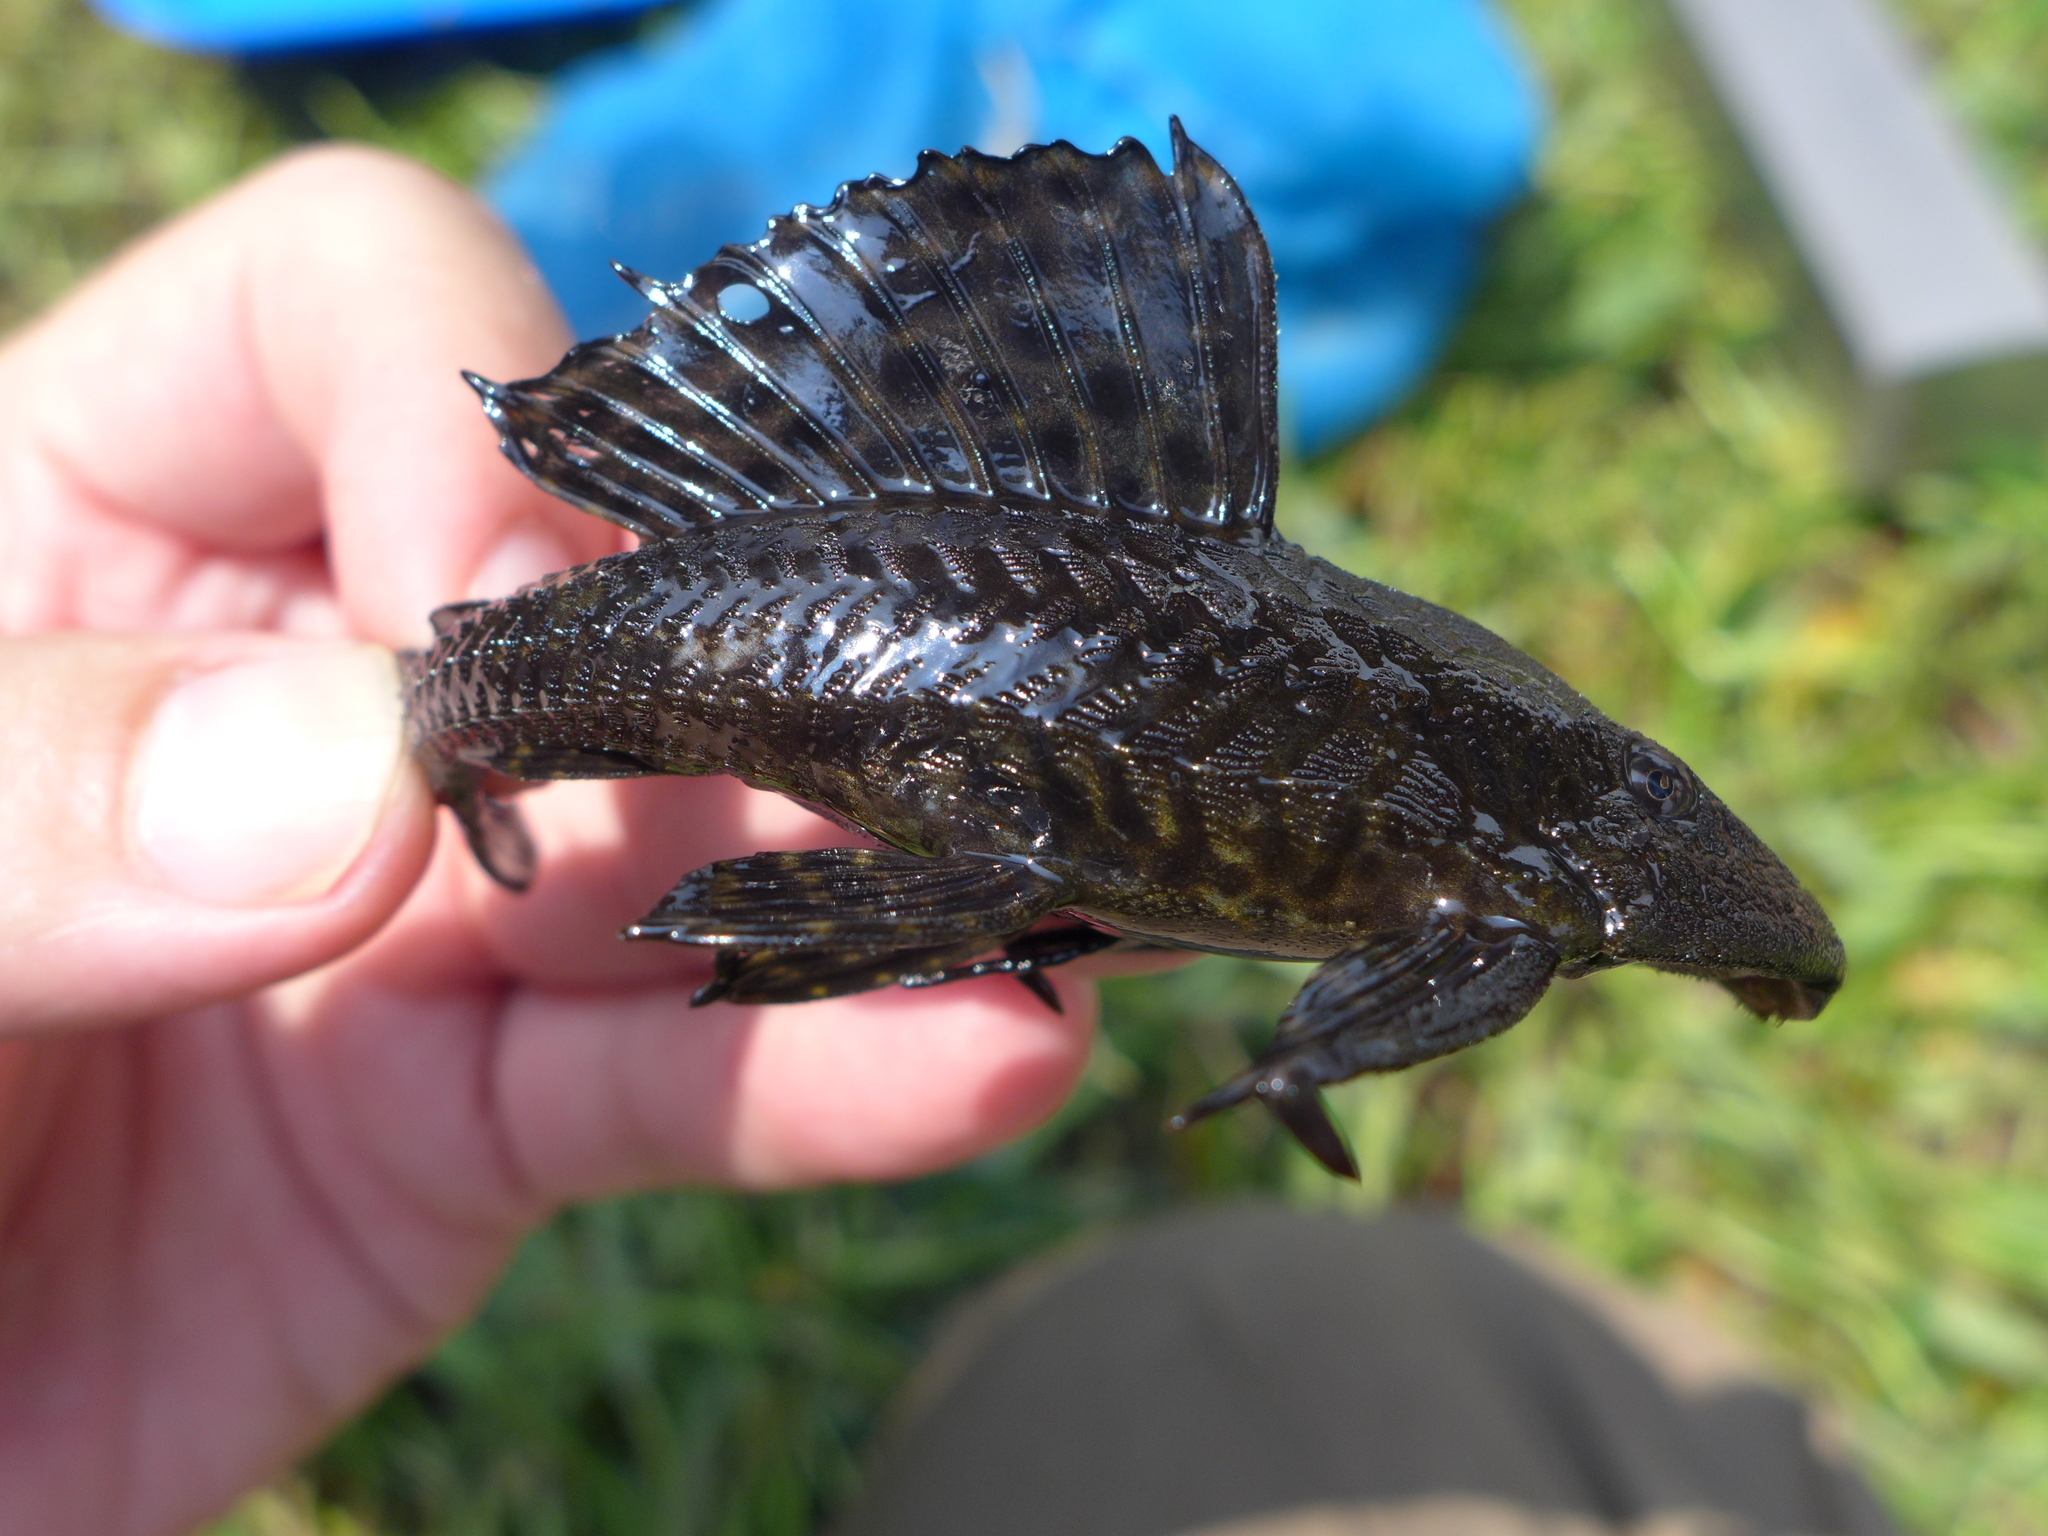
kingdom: Animalia
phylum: Chordata
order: Siluriformes
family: Loricariidae
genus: Pterygoplichthys
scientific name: Pterygoplichthys
